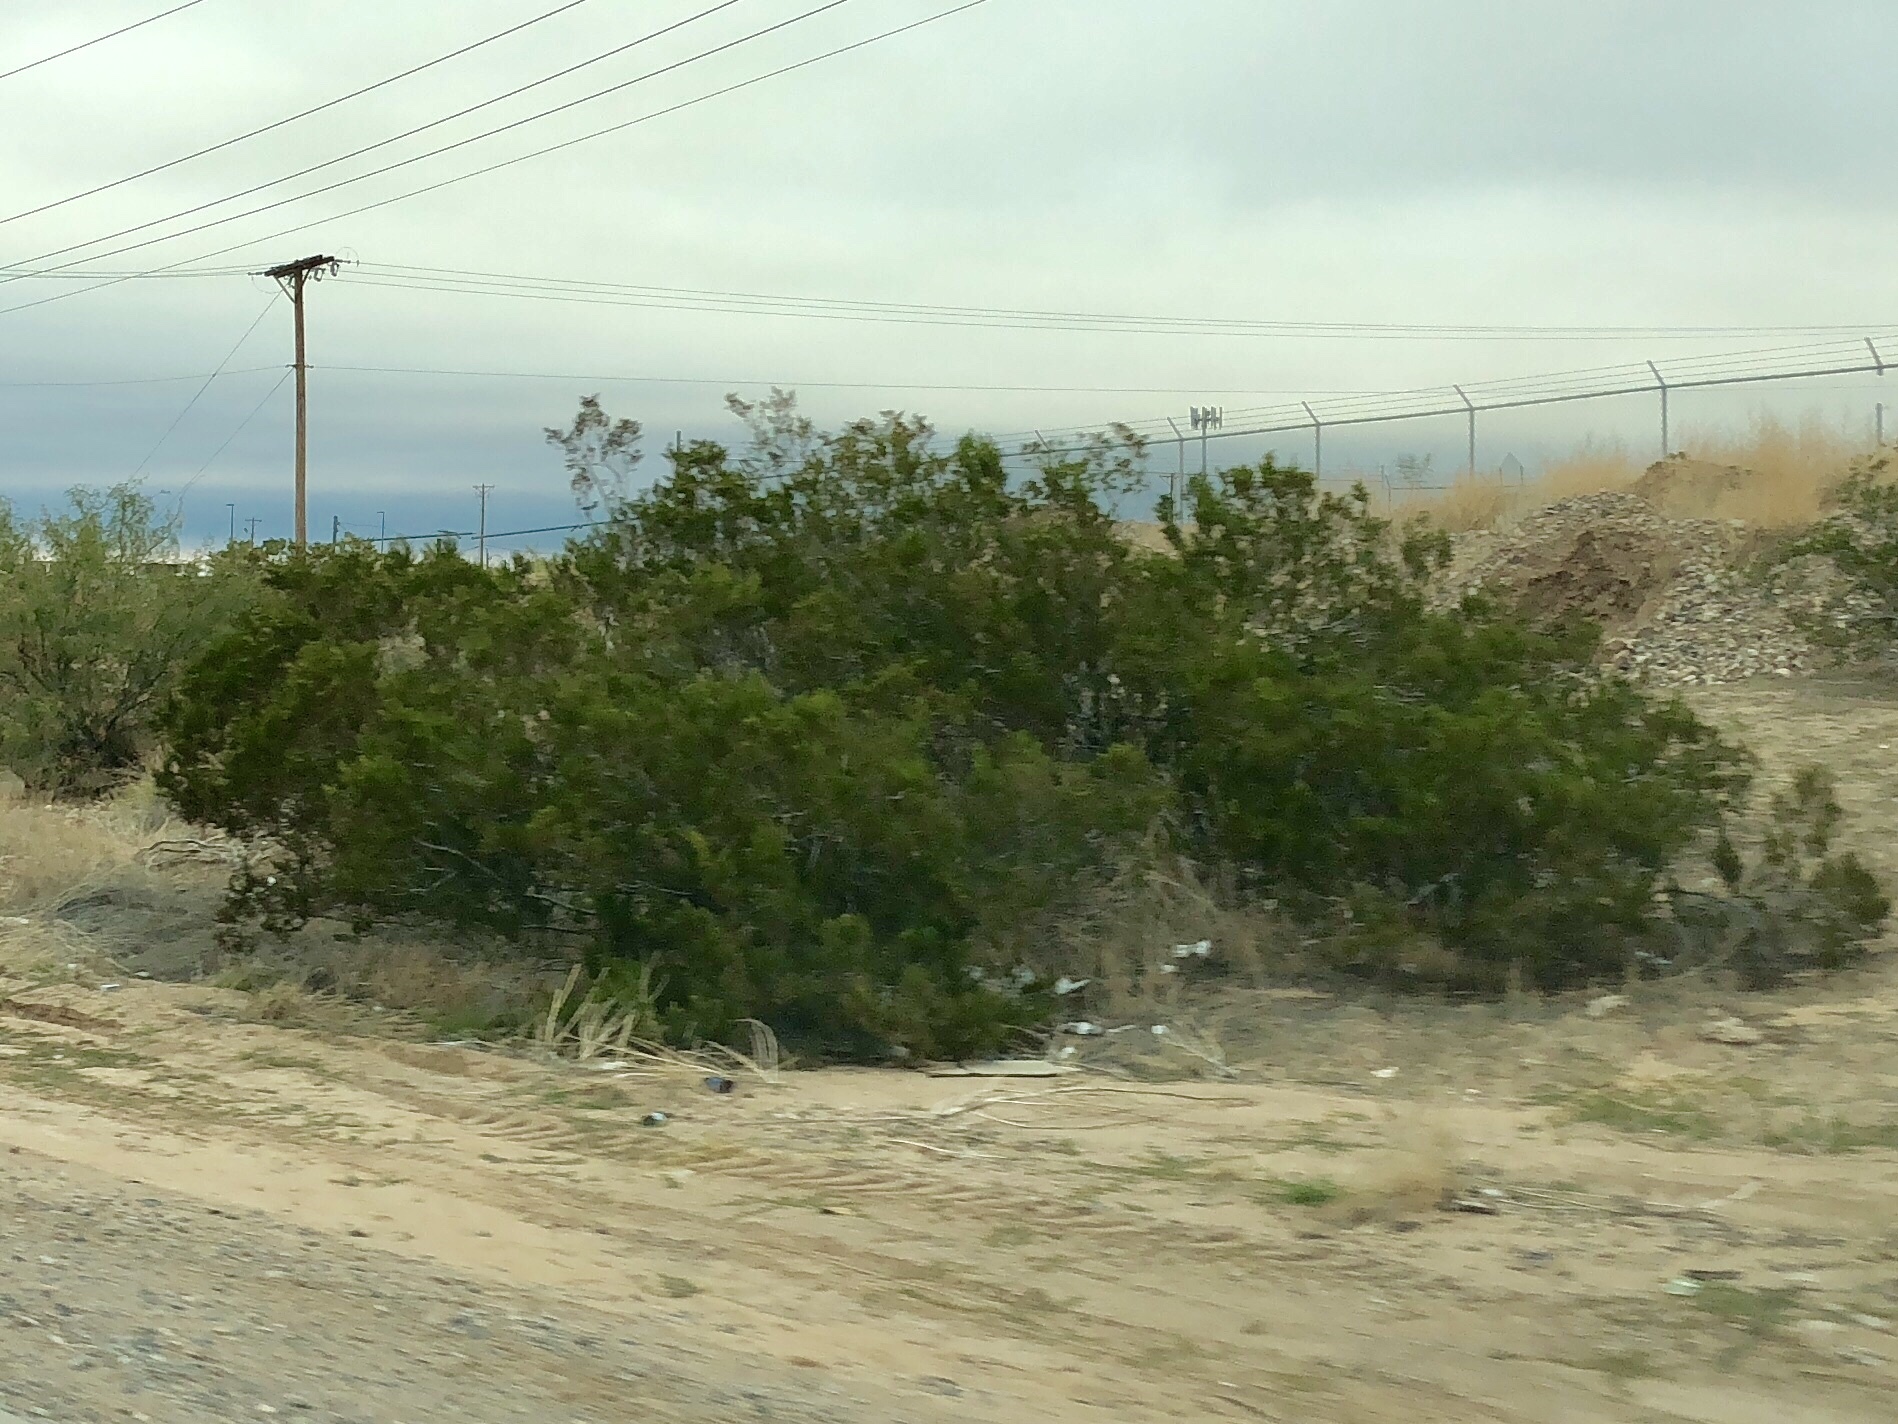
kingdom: Plantae
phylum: Tracheophyta
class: Magnoliopsida
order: Zygophyllales
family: Zygophyllaceae
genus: Larrea
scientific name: Larrea tridentata
